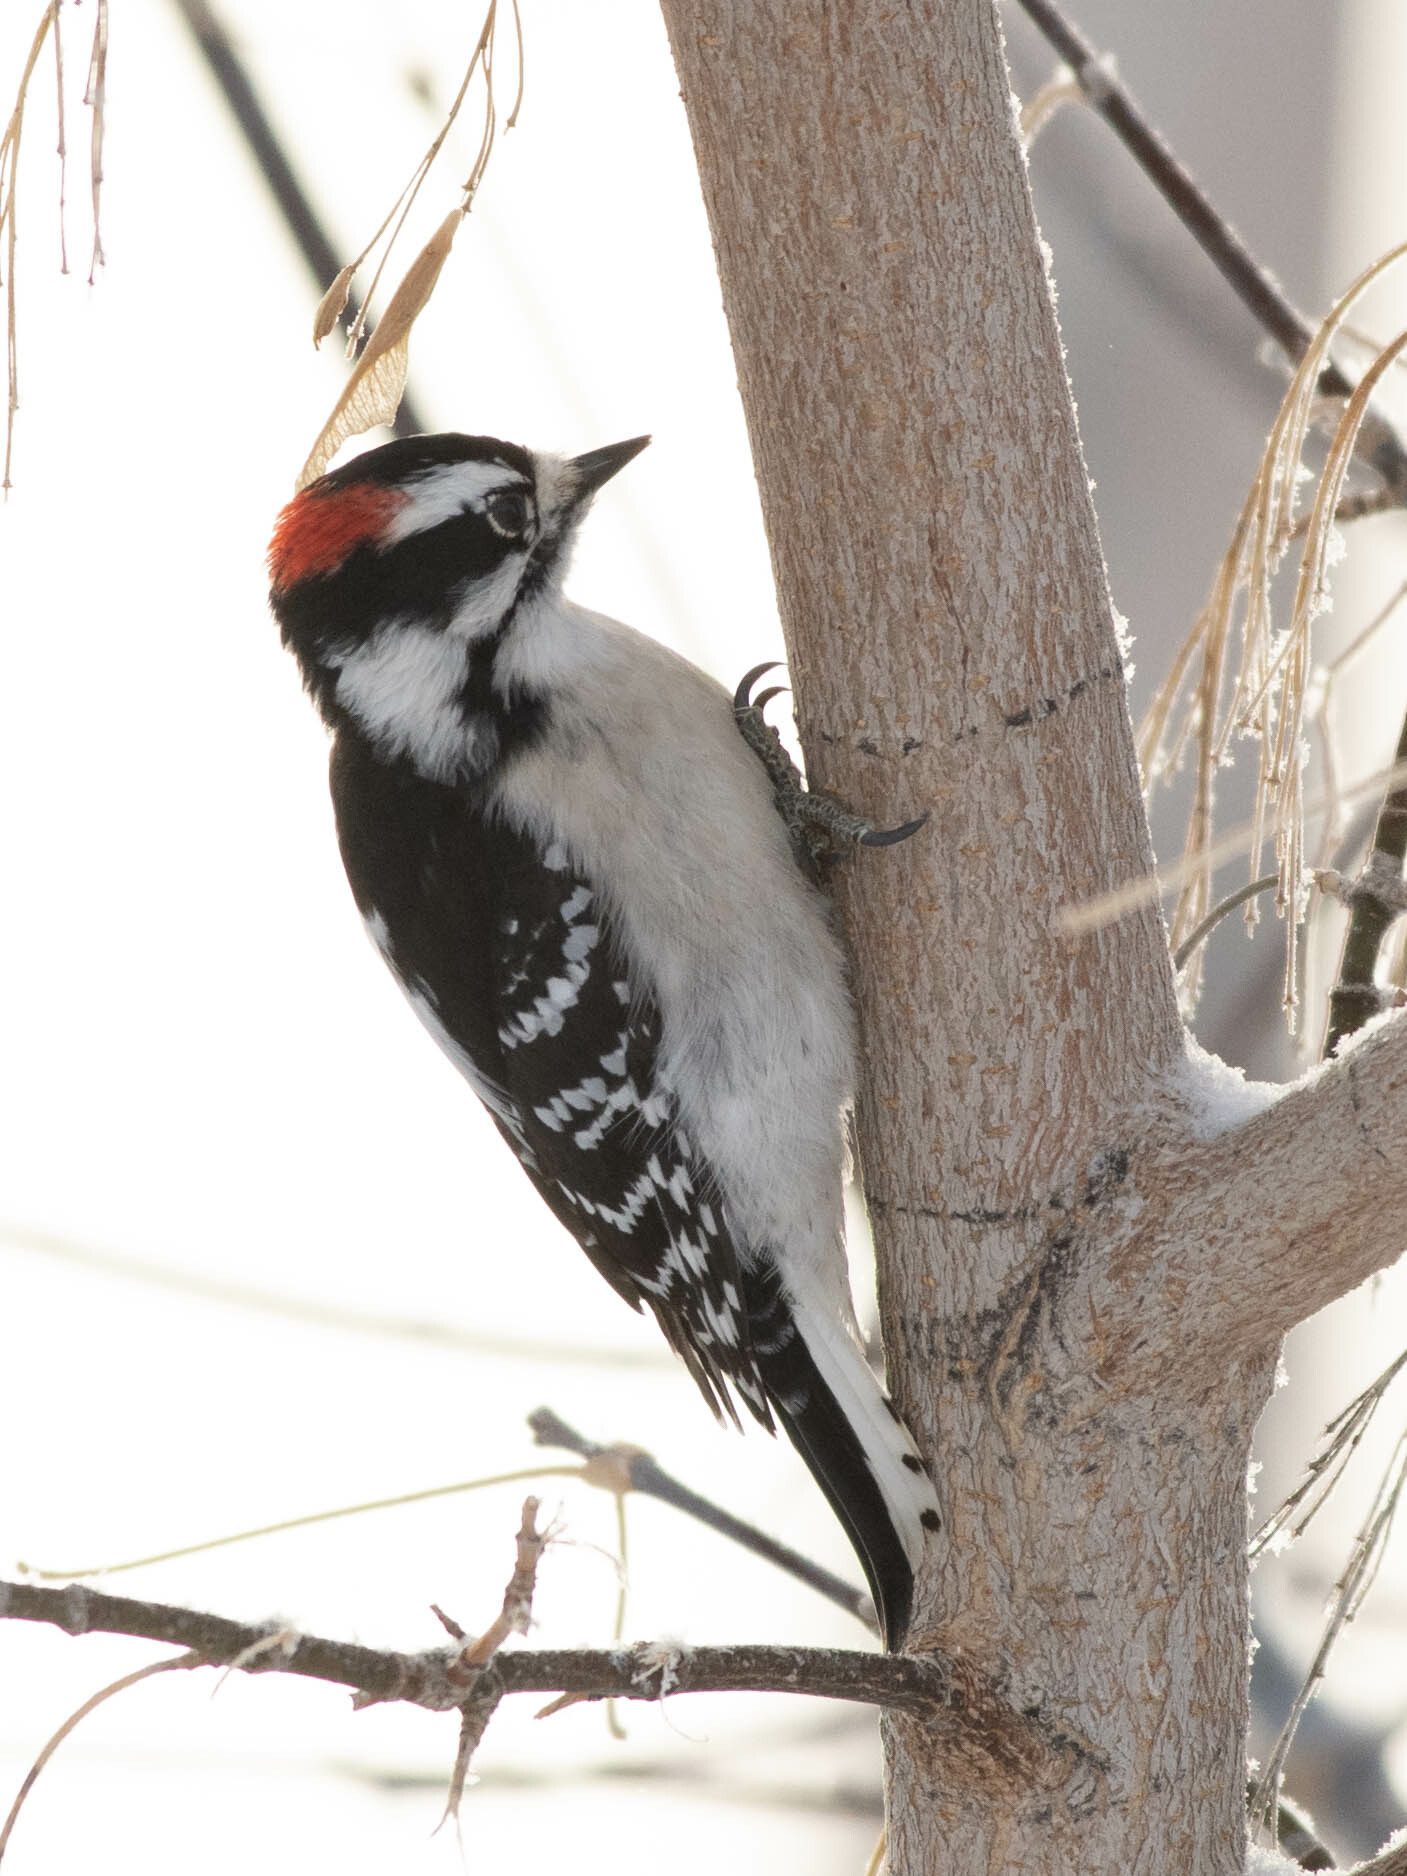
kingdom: Animalia
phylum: Chordata
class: Aves
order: Piciformes
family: Picidae
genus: Dryobates
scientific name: Dryobates pubescens
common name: Downy woodpecker
